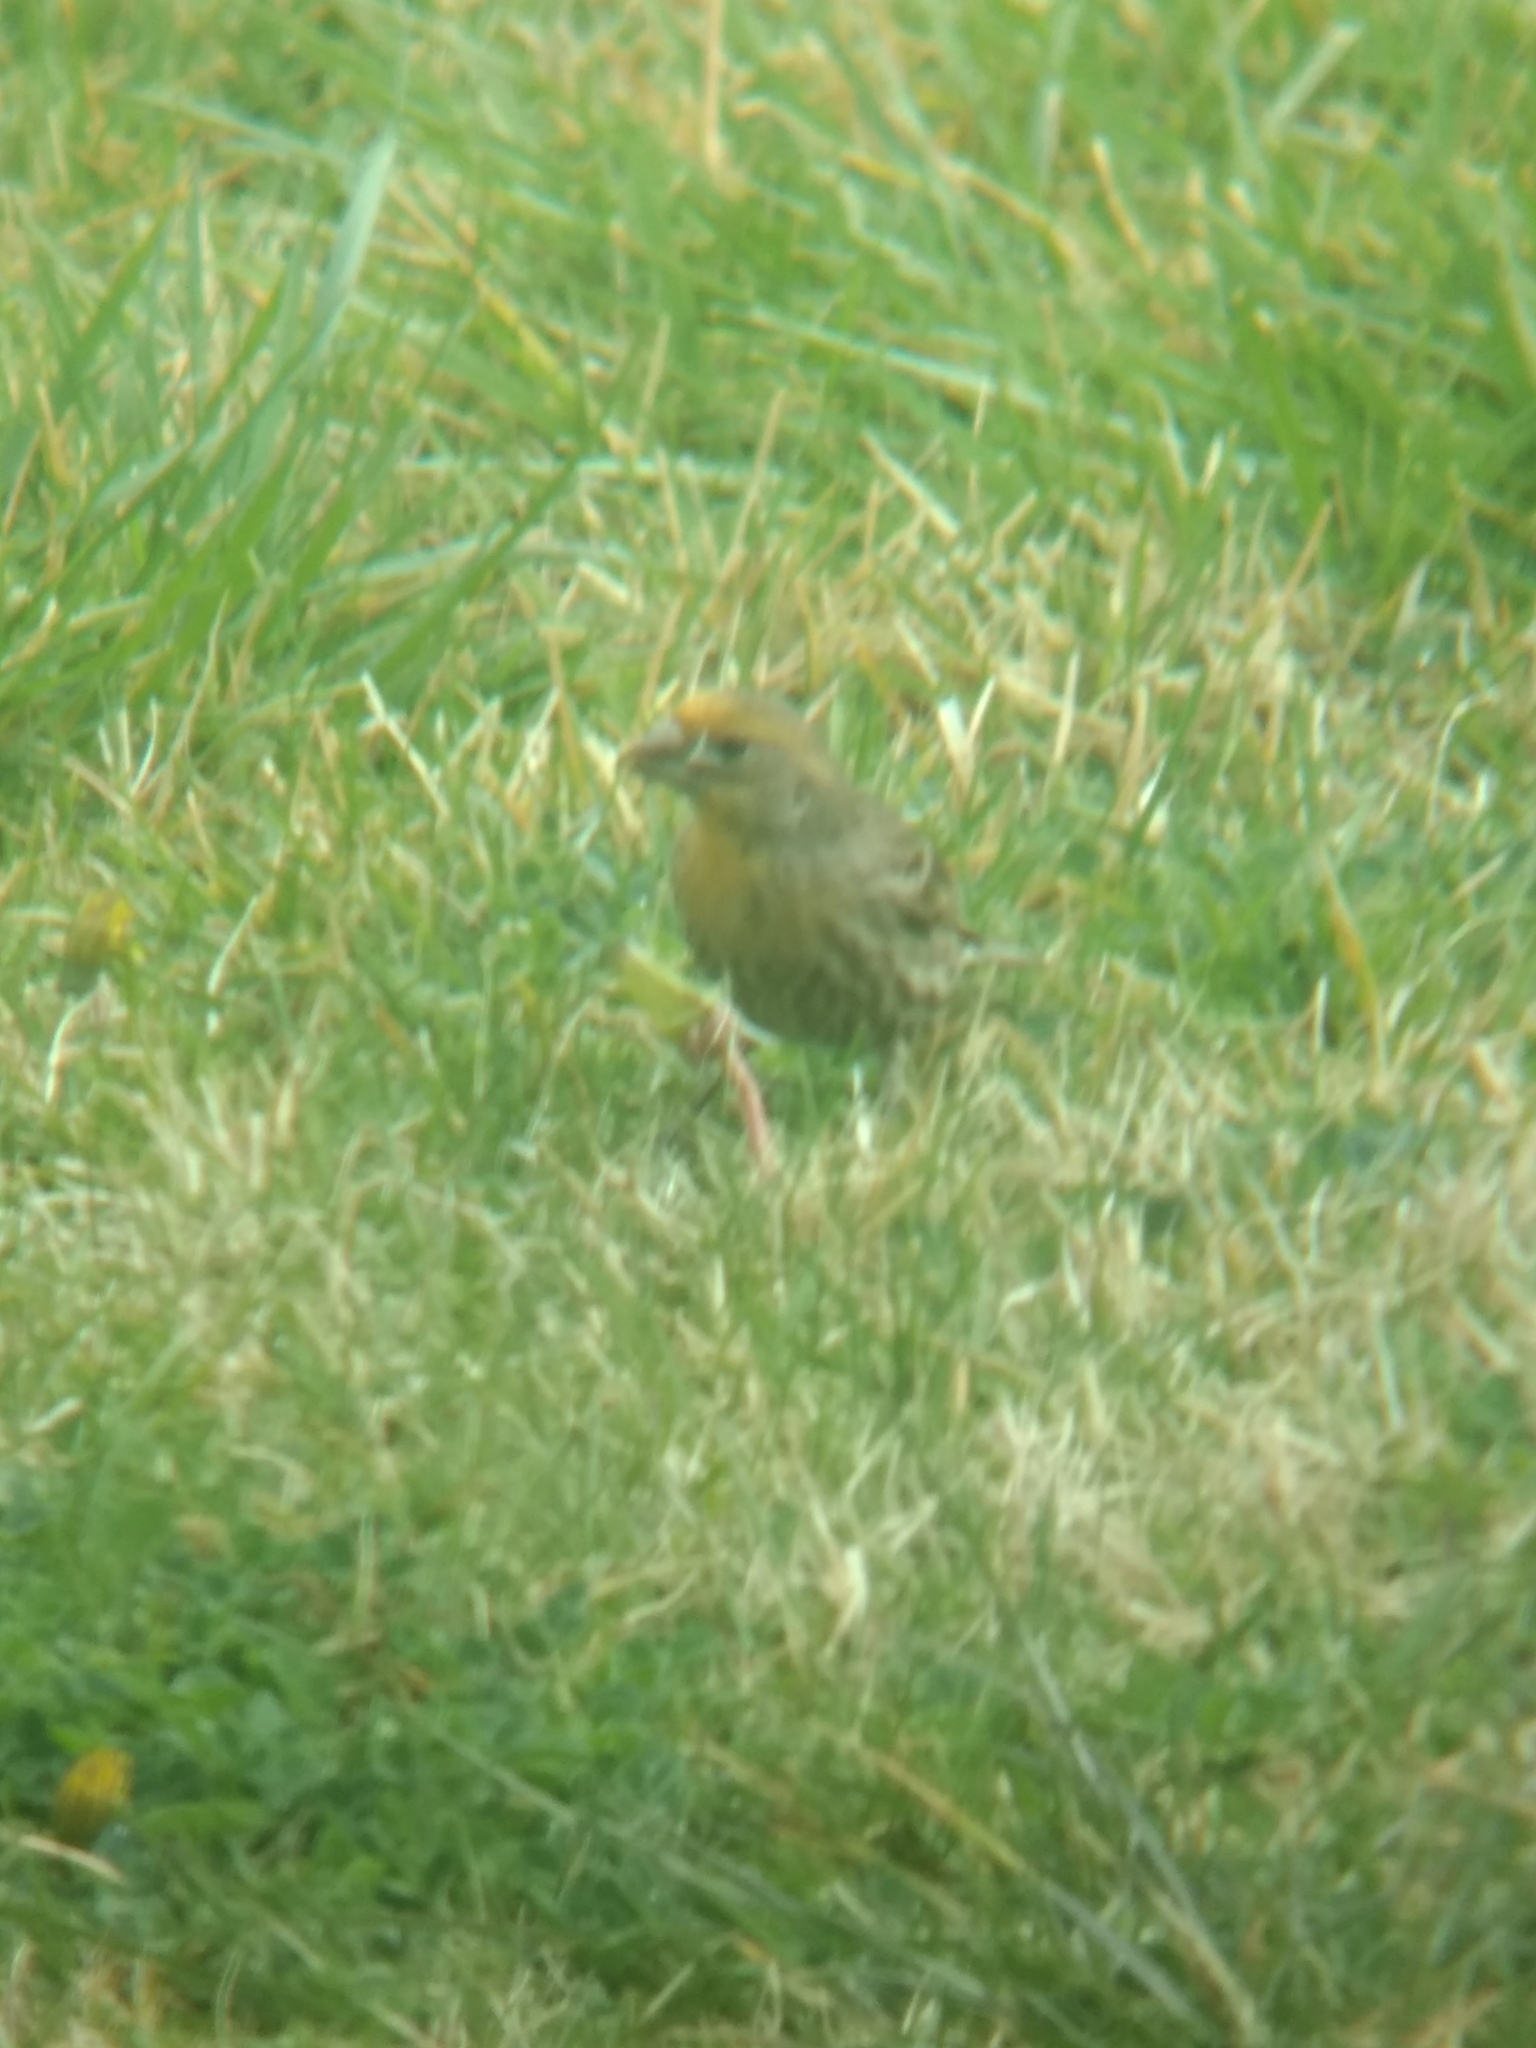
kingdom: Animalia
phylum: Chordata
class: Aves
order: Passeriformes
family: Fringillidae
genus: Haemorhous
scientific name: Haemorhous mexicanus
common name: House finch
